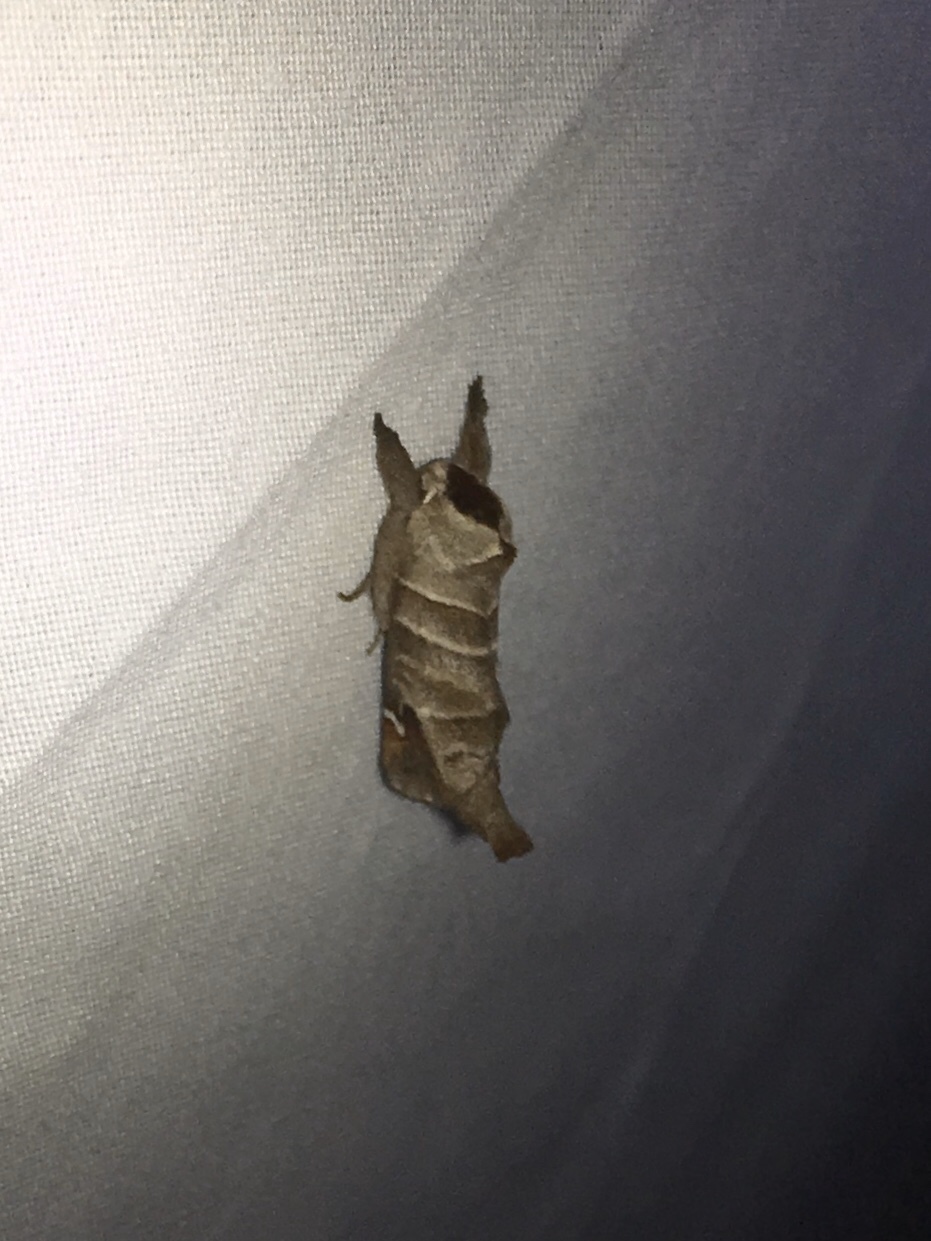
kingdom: Animalia
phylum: Arthropoda
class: Insecta
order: Lepidoptera
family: Notodontidae
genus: Clostera
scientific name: Clostera albosigma
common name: Sigmoid prominent
